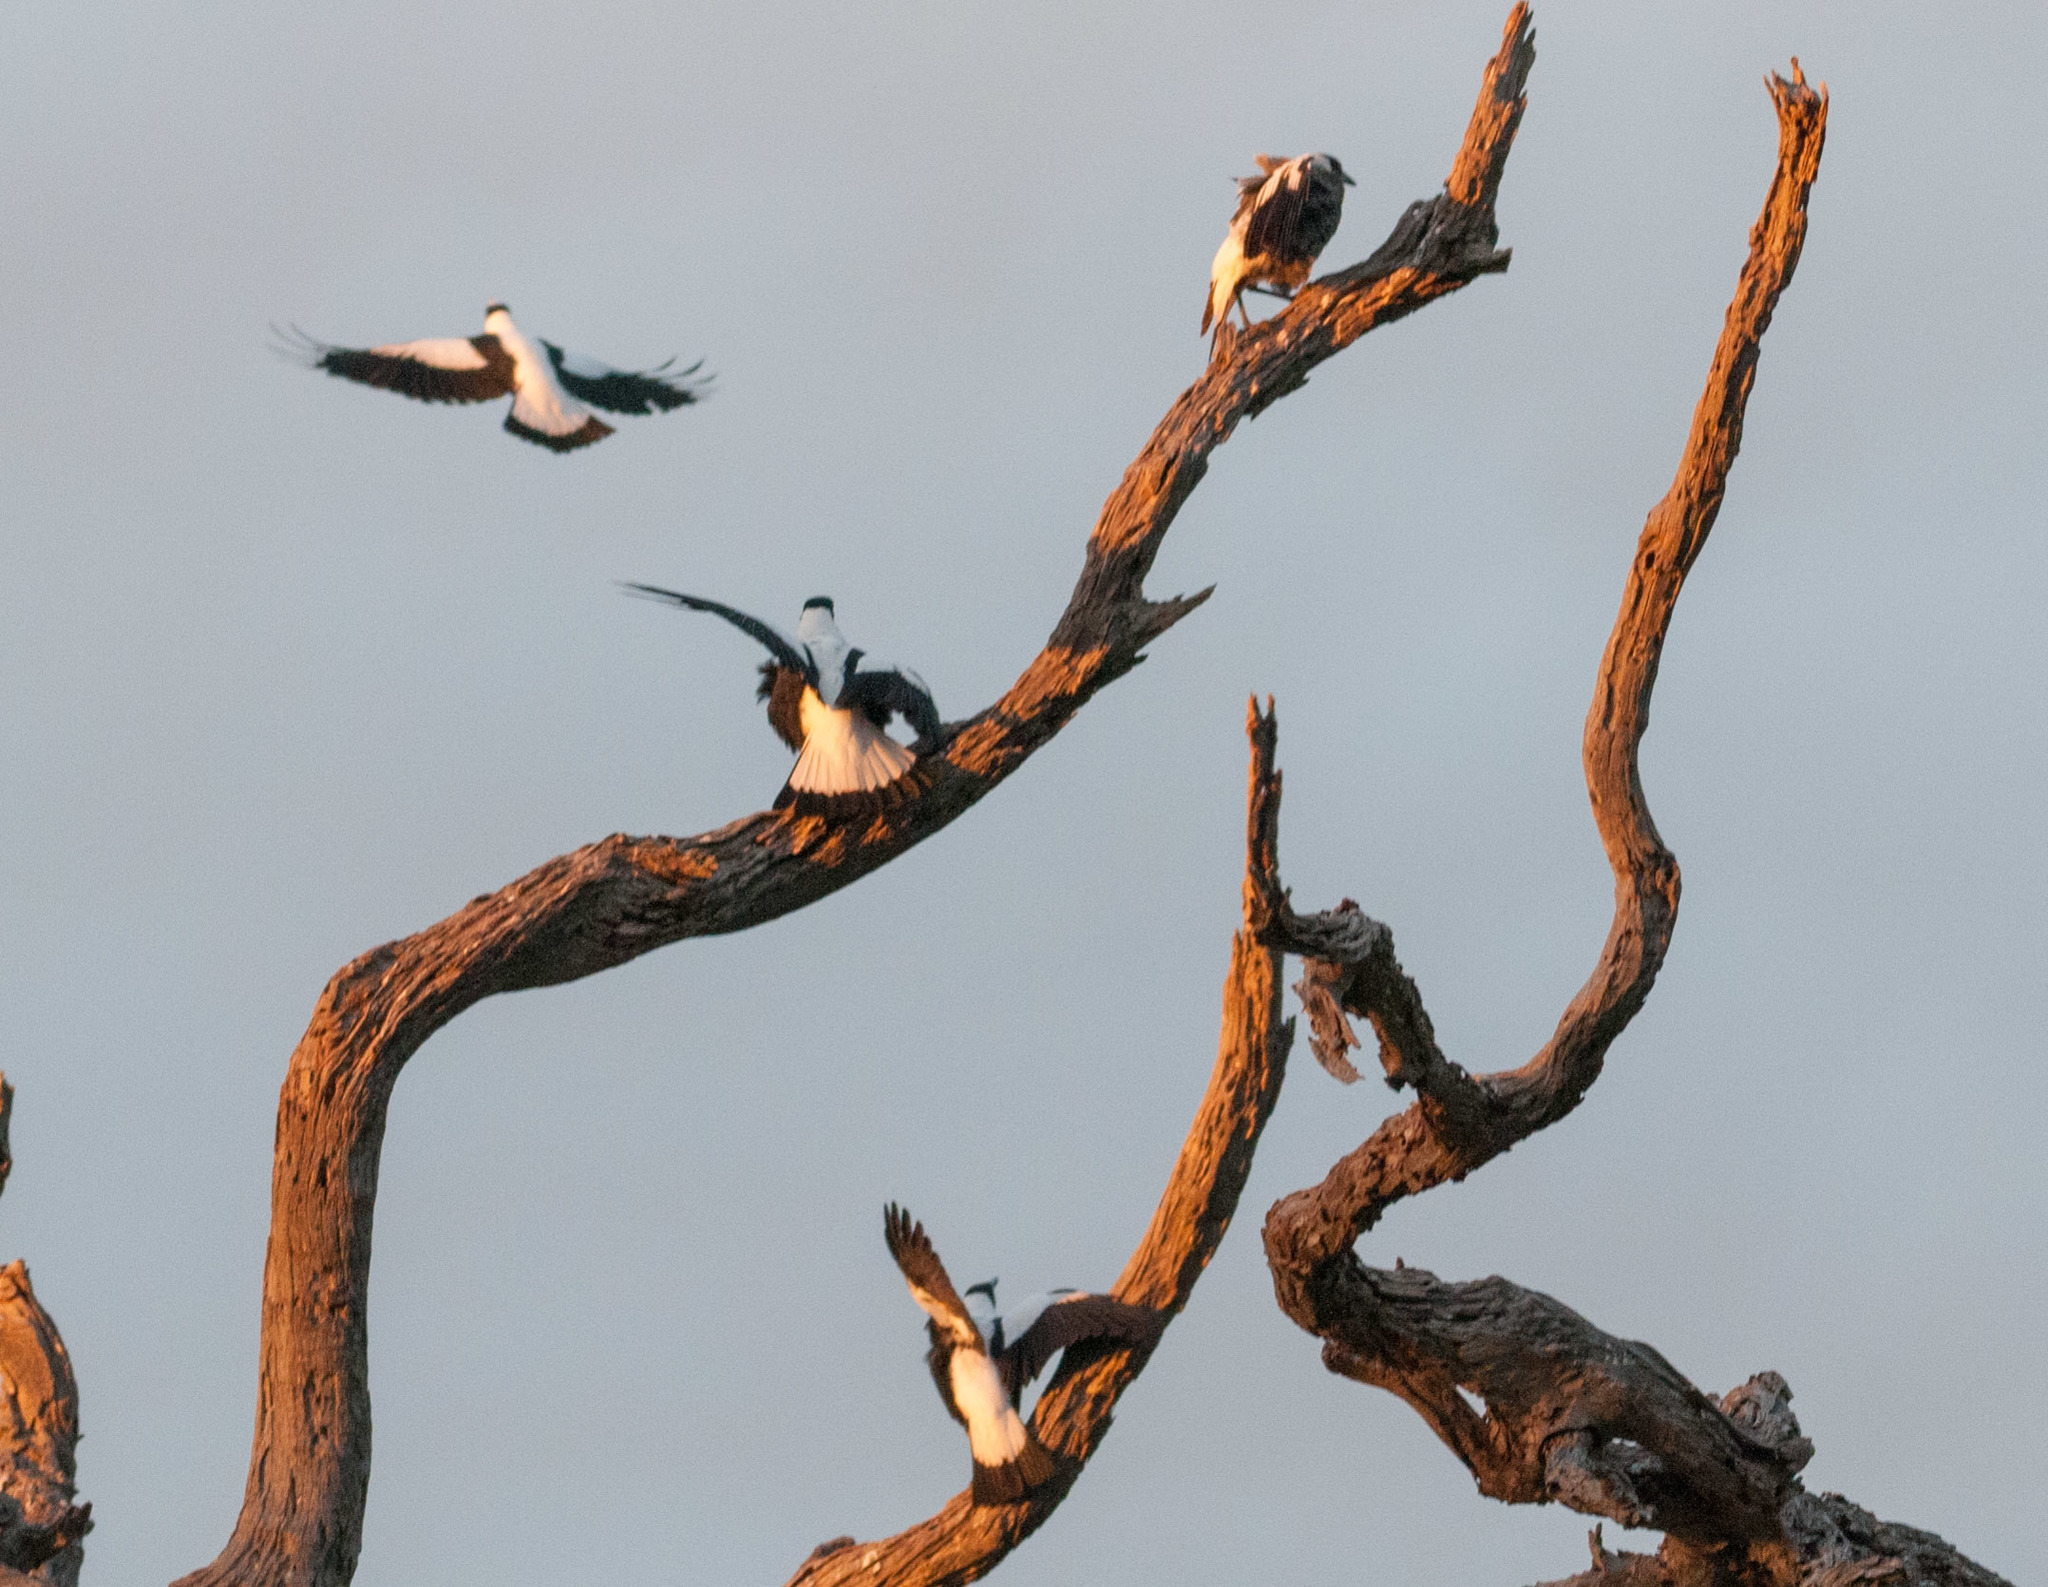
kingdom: Animalia
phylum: Chordata
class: Aves
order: Passeriformes
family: Cracticidae
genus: Gymnorhina
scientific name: Gymnorhina tibicen
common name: Australian magpie
